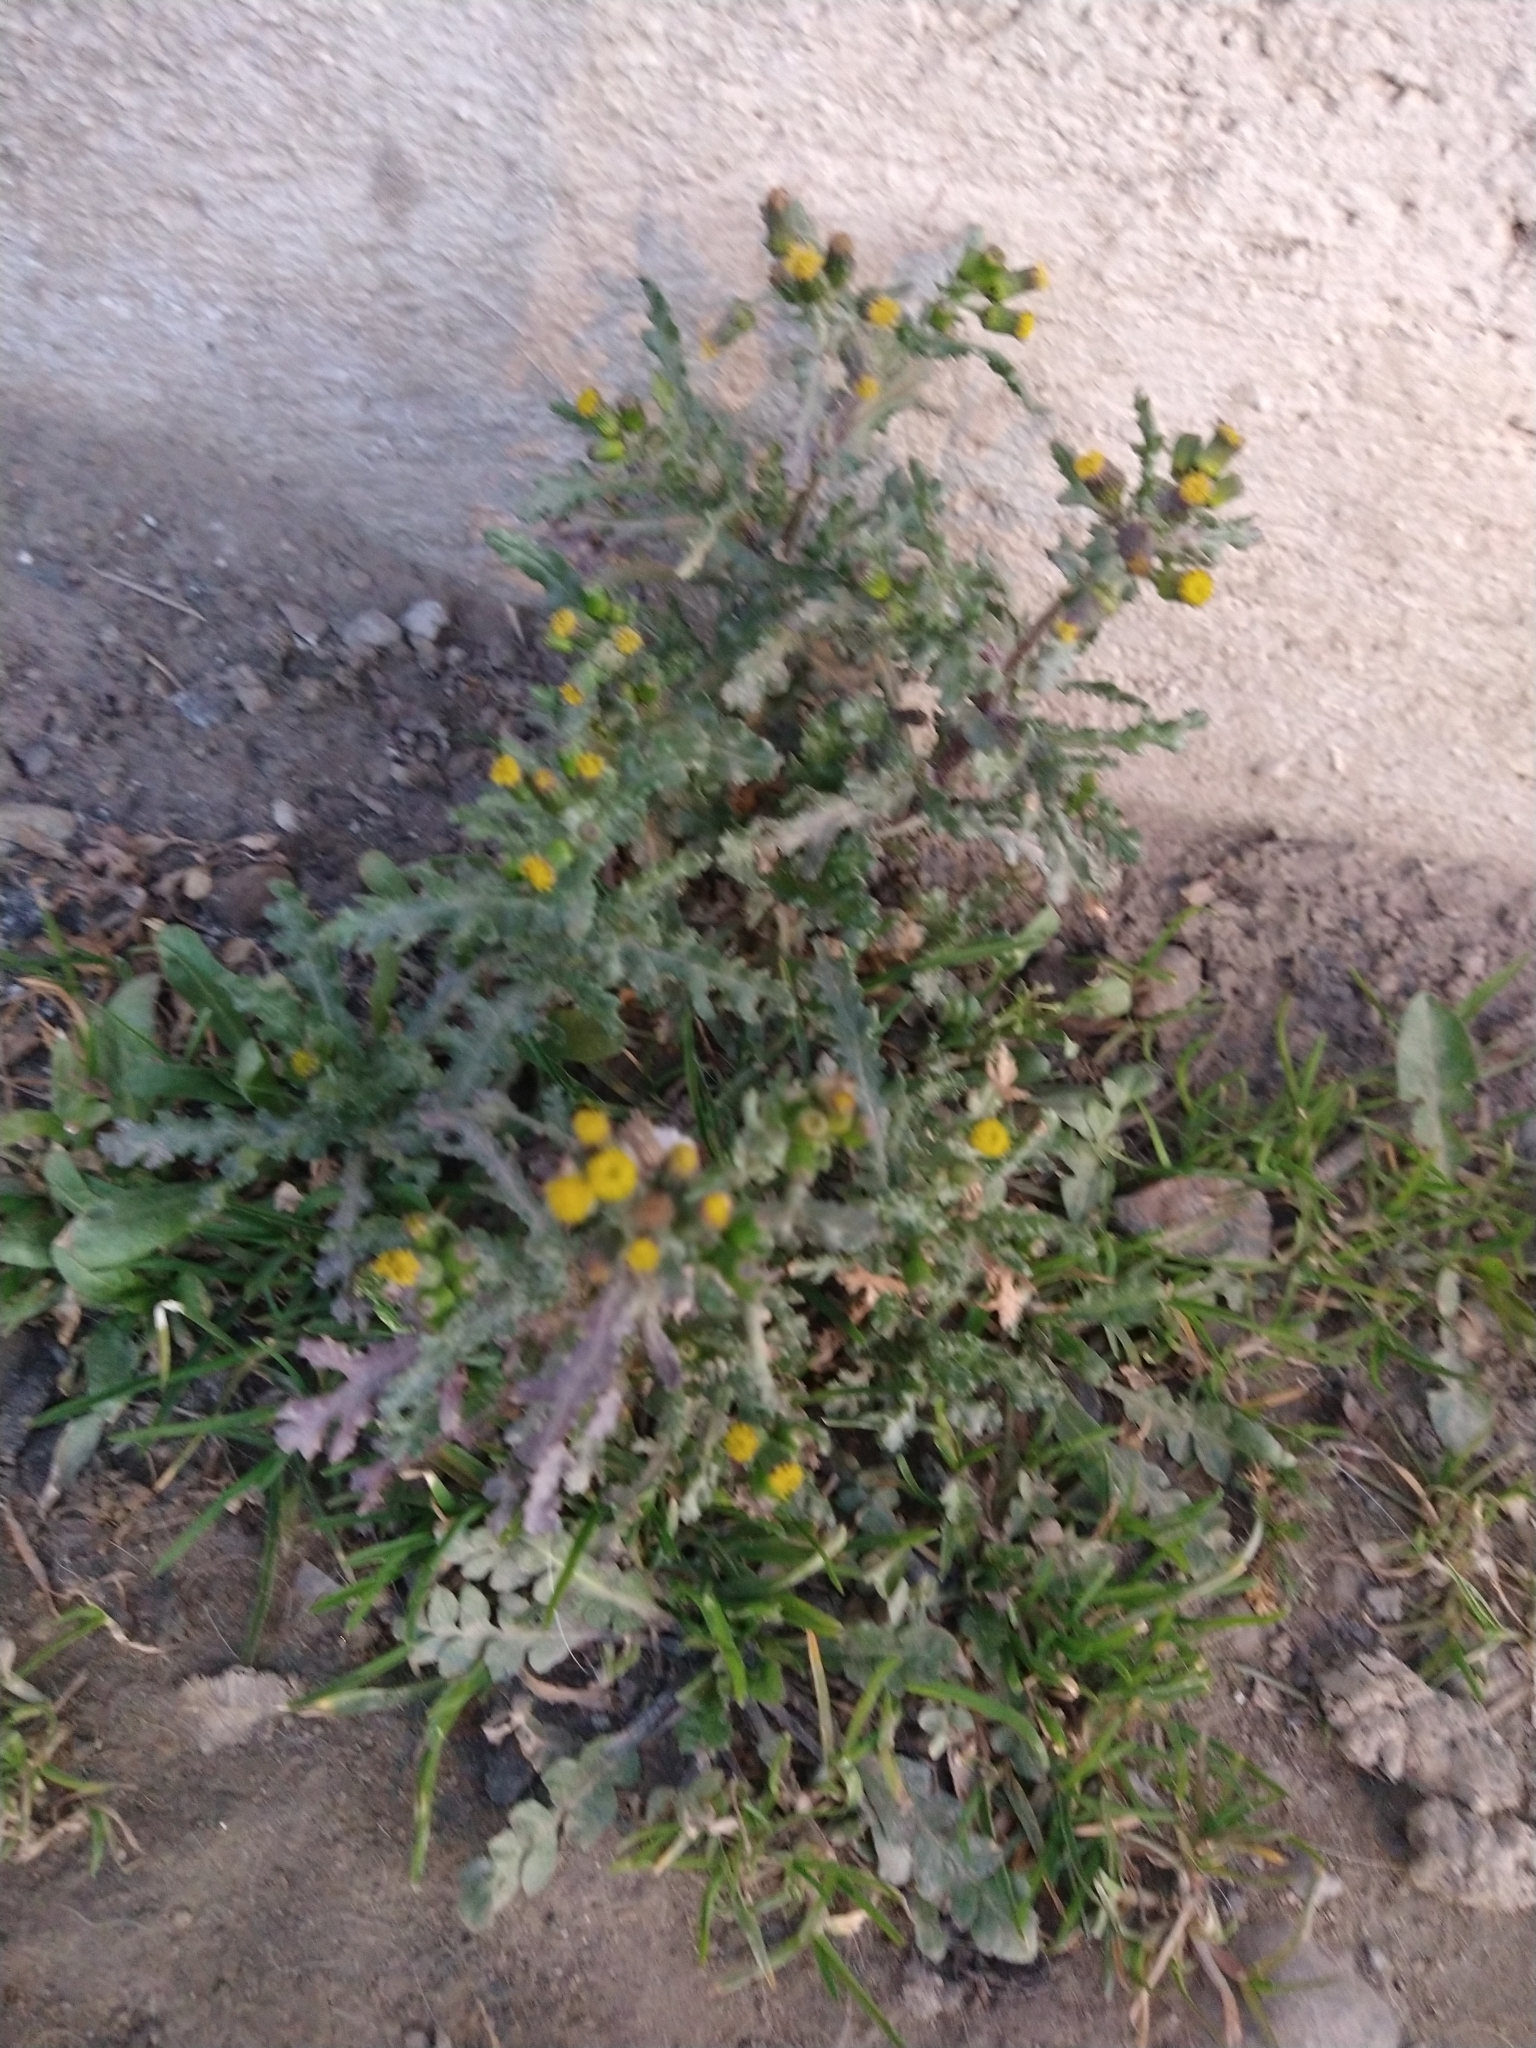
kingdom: Plantae
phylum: Tracheophyta
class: Magnoliopsida
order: Asterales
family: Asteraceae
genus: Senecio
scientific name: Senecio vulgaris
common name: Old-man-in-the-spring
